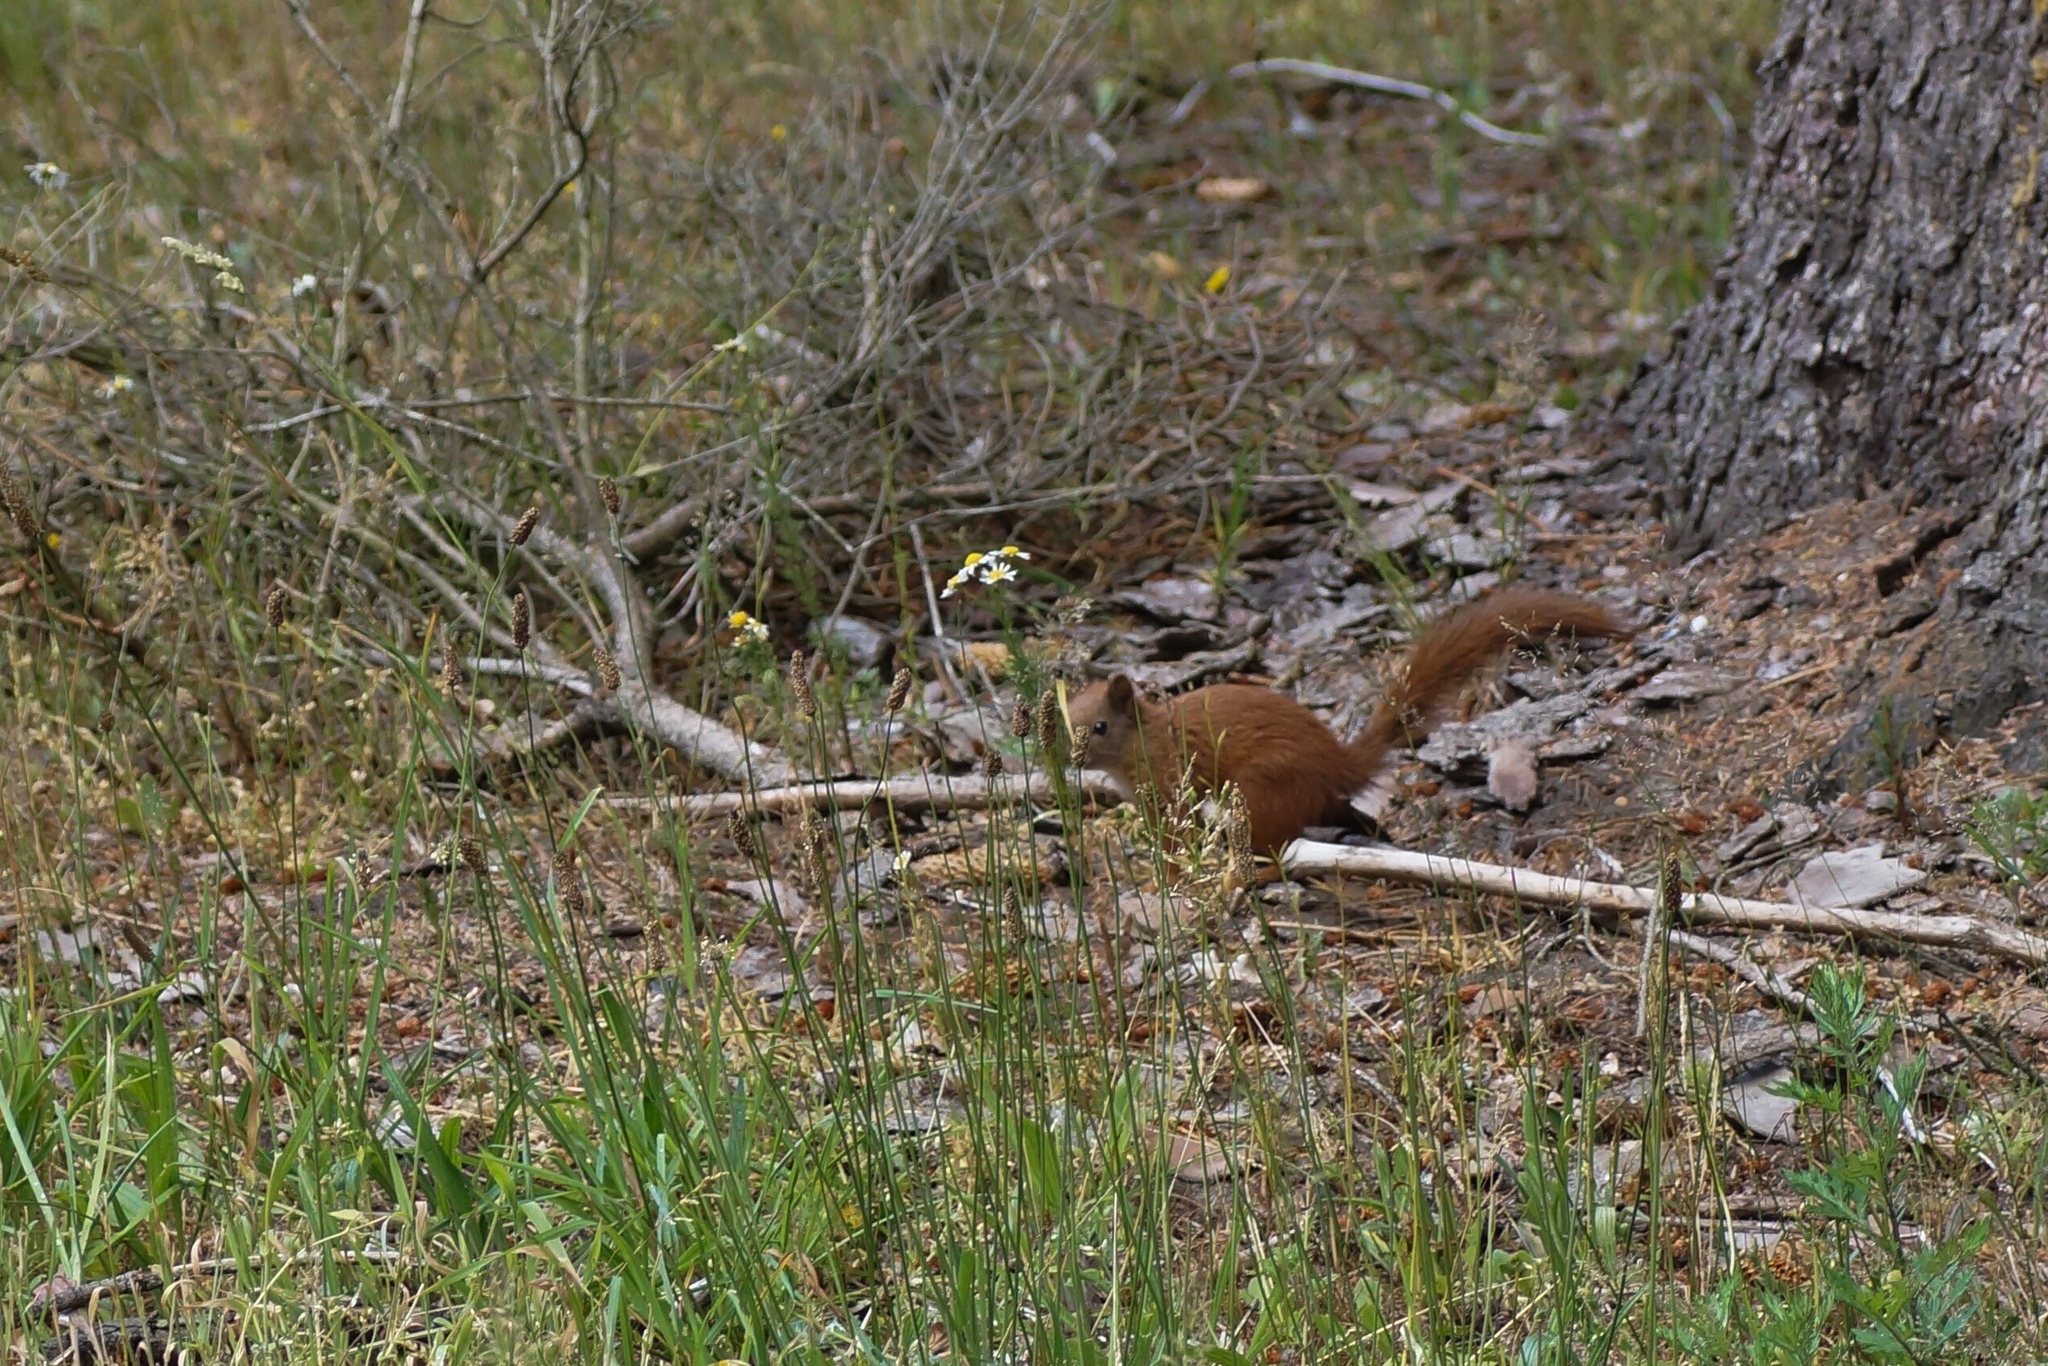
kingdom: Animalia
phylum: Chordata
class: Mammalia
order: Rodentia
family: Sciuridae
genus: Sciurus
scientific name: Sciurus vulgaris
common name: Eurasian red squirrel
